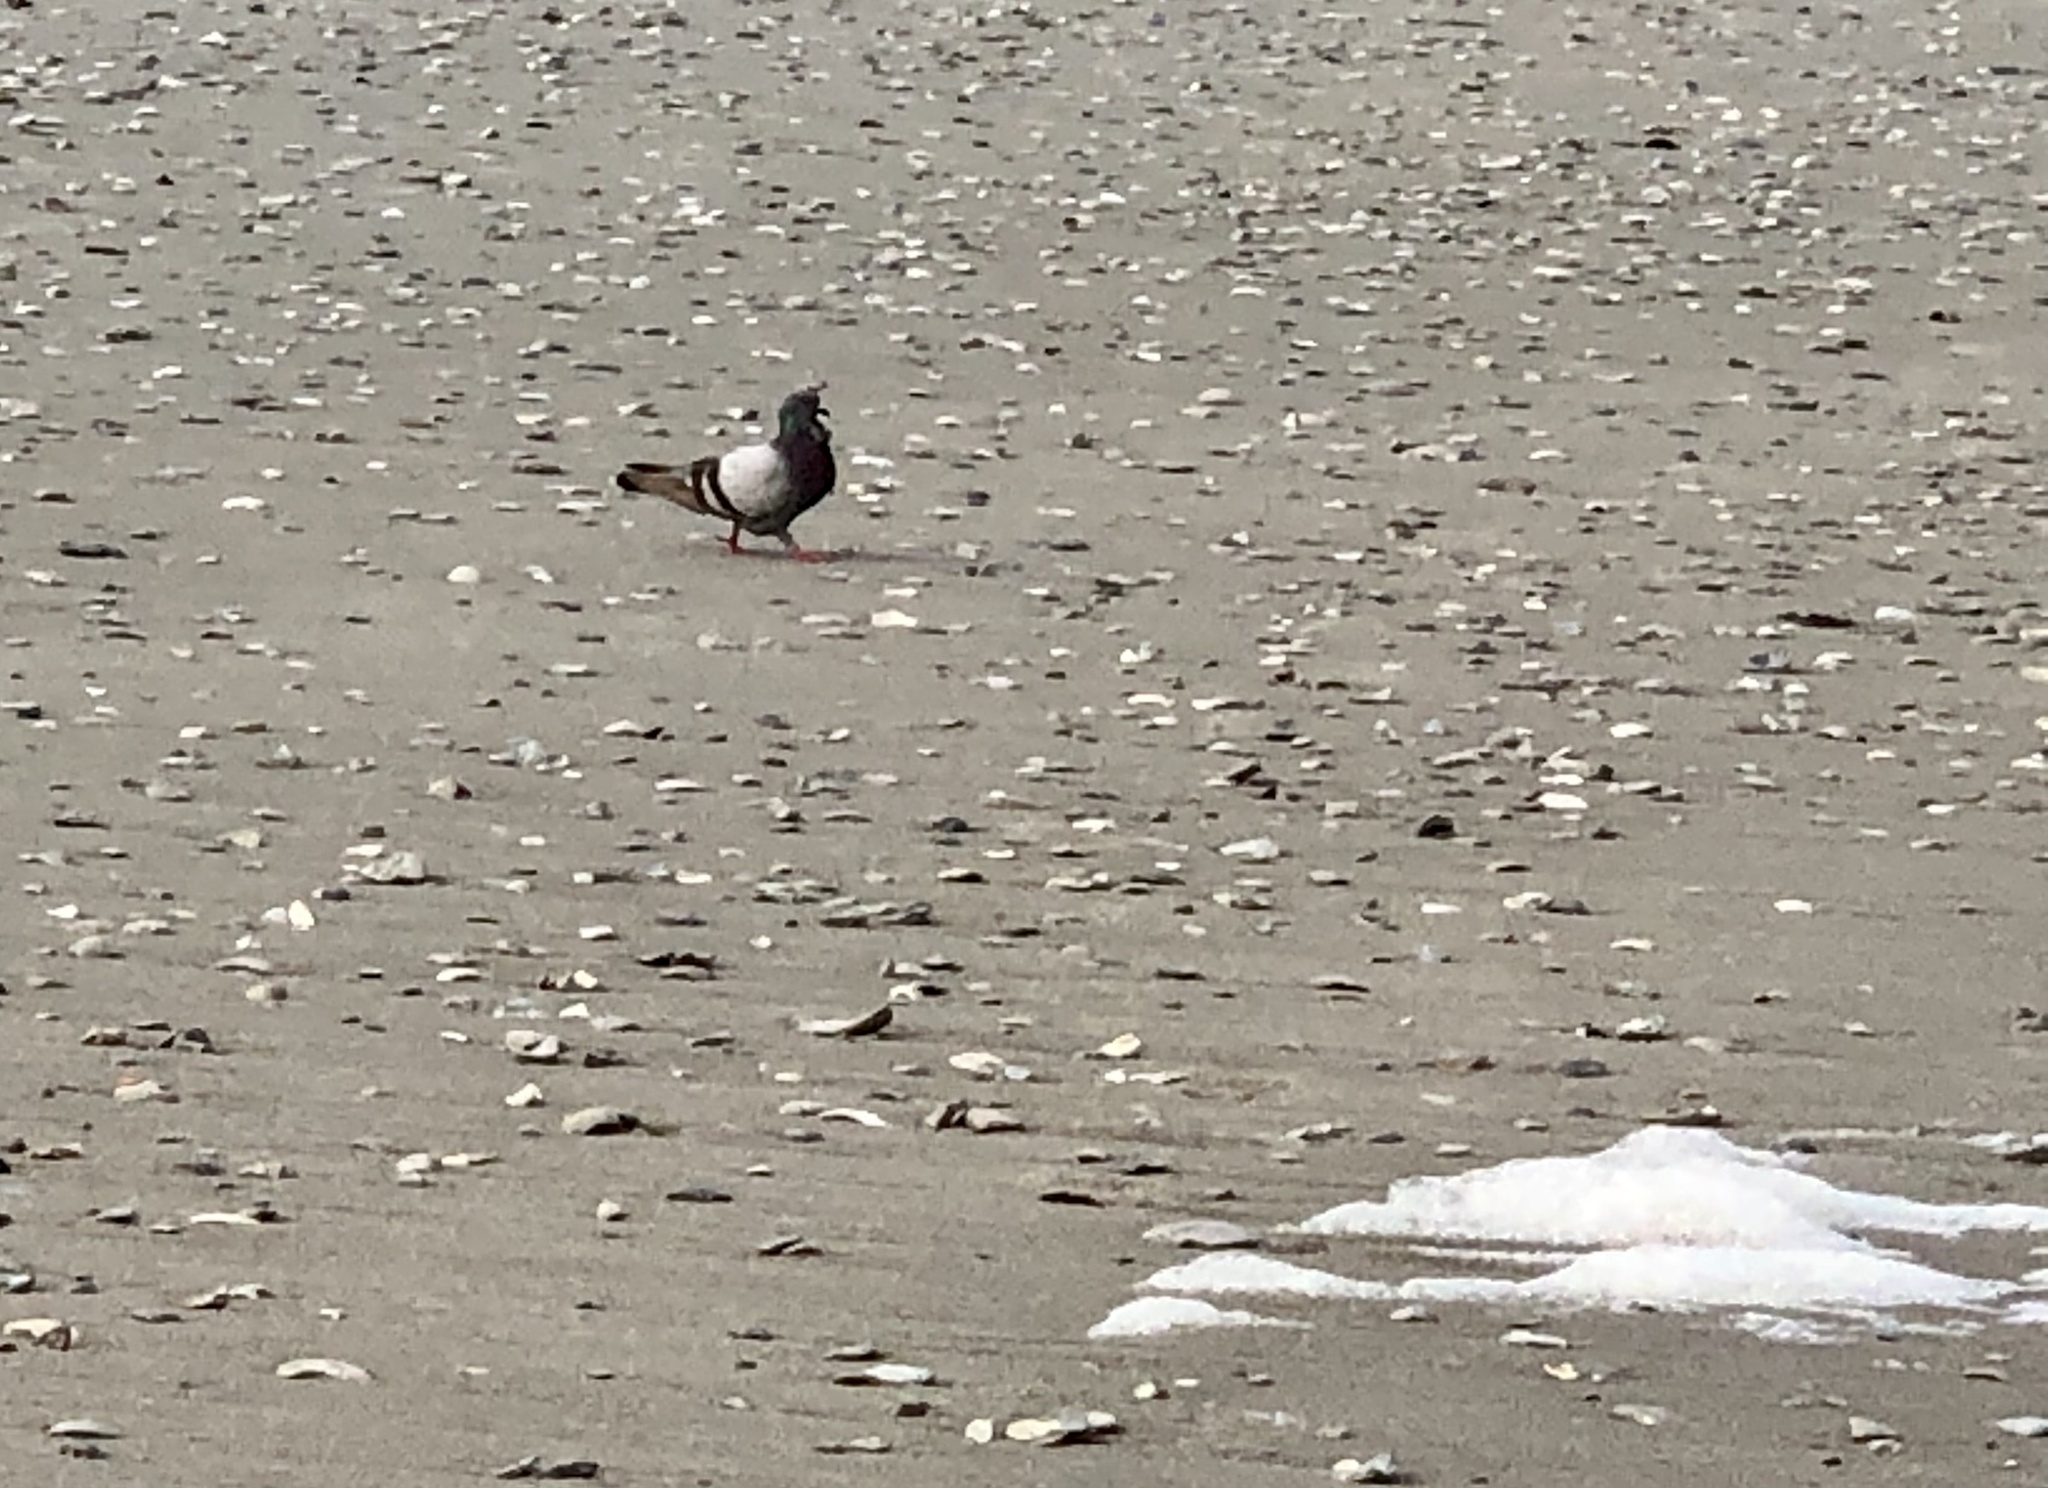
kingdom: Animalia
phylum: Chordata
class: Aves
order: Columbiformes
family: Columbidae
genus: Columba
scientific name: Columba livia
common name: Rock pigeon
